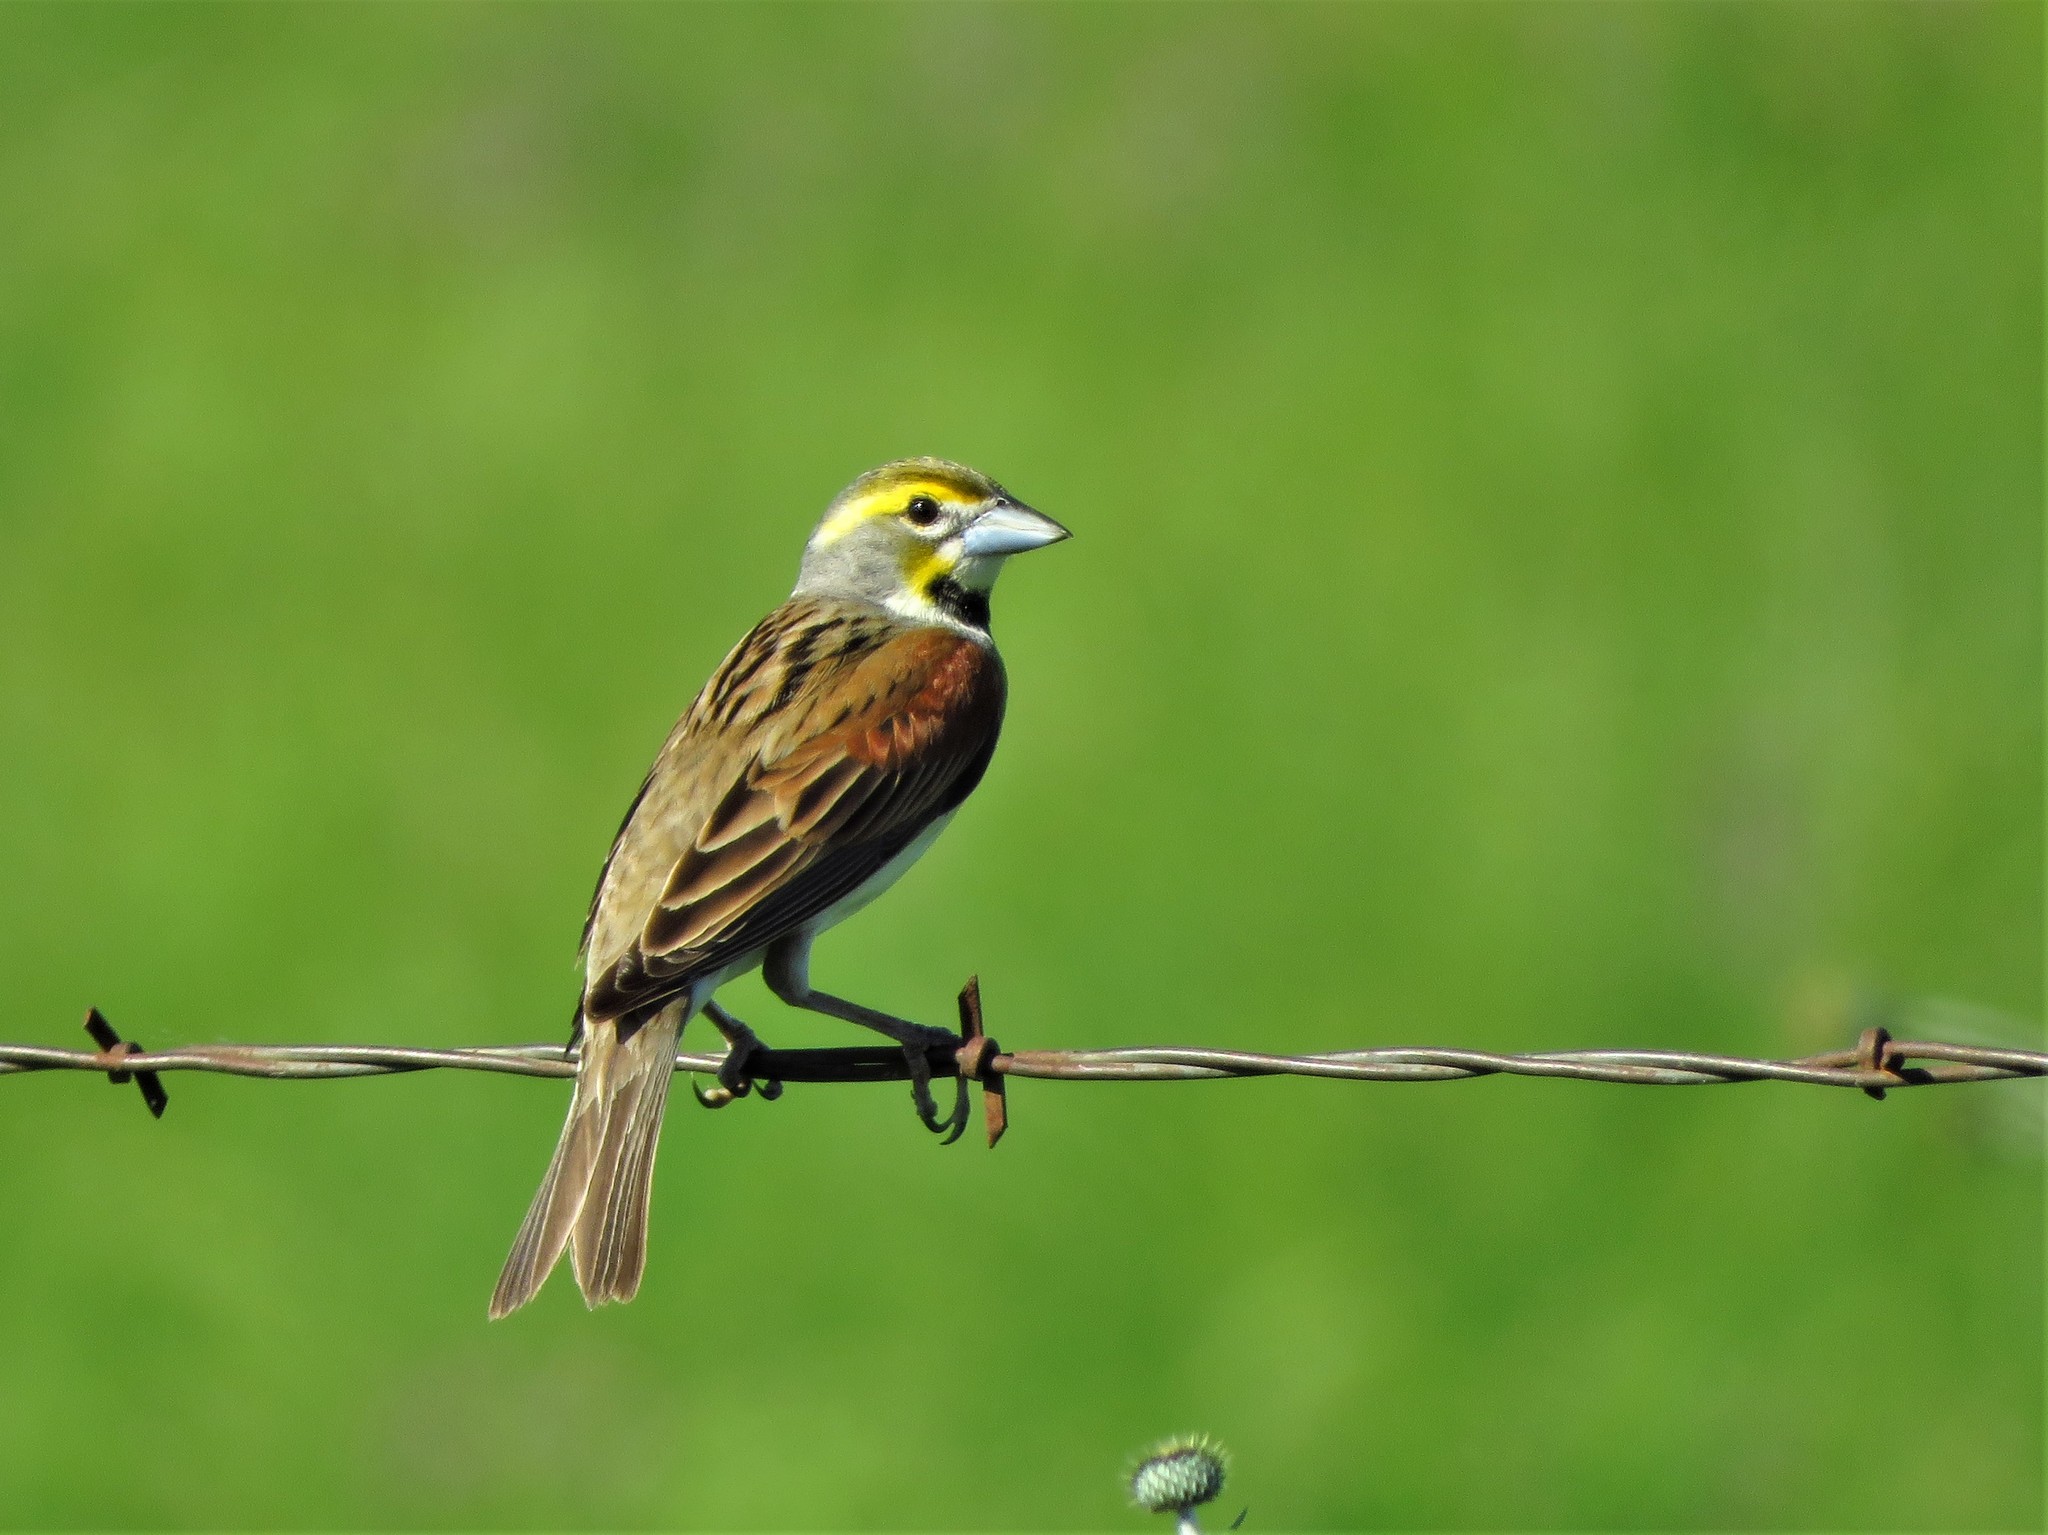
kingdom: Animalia
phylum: Chordata
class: Aves
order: Passeriformes
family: Cardinalidae
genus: Spiza
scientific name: Spiza americana
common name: Dickcissel
